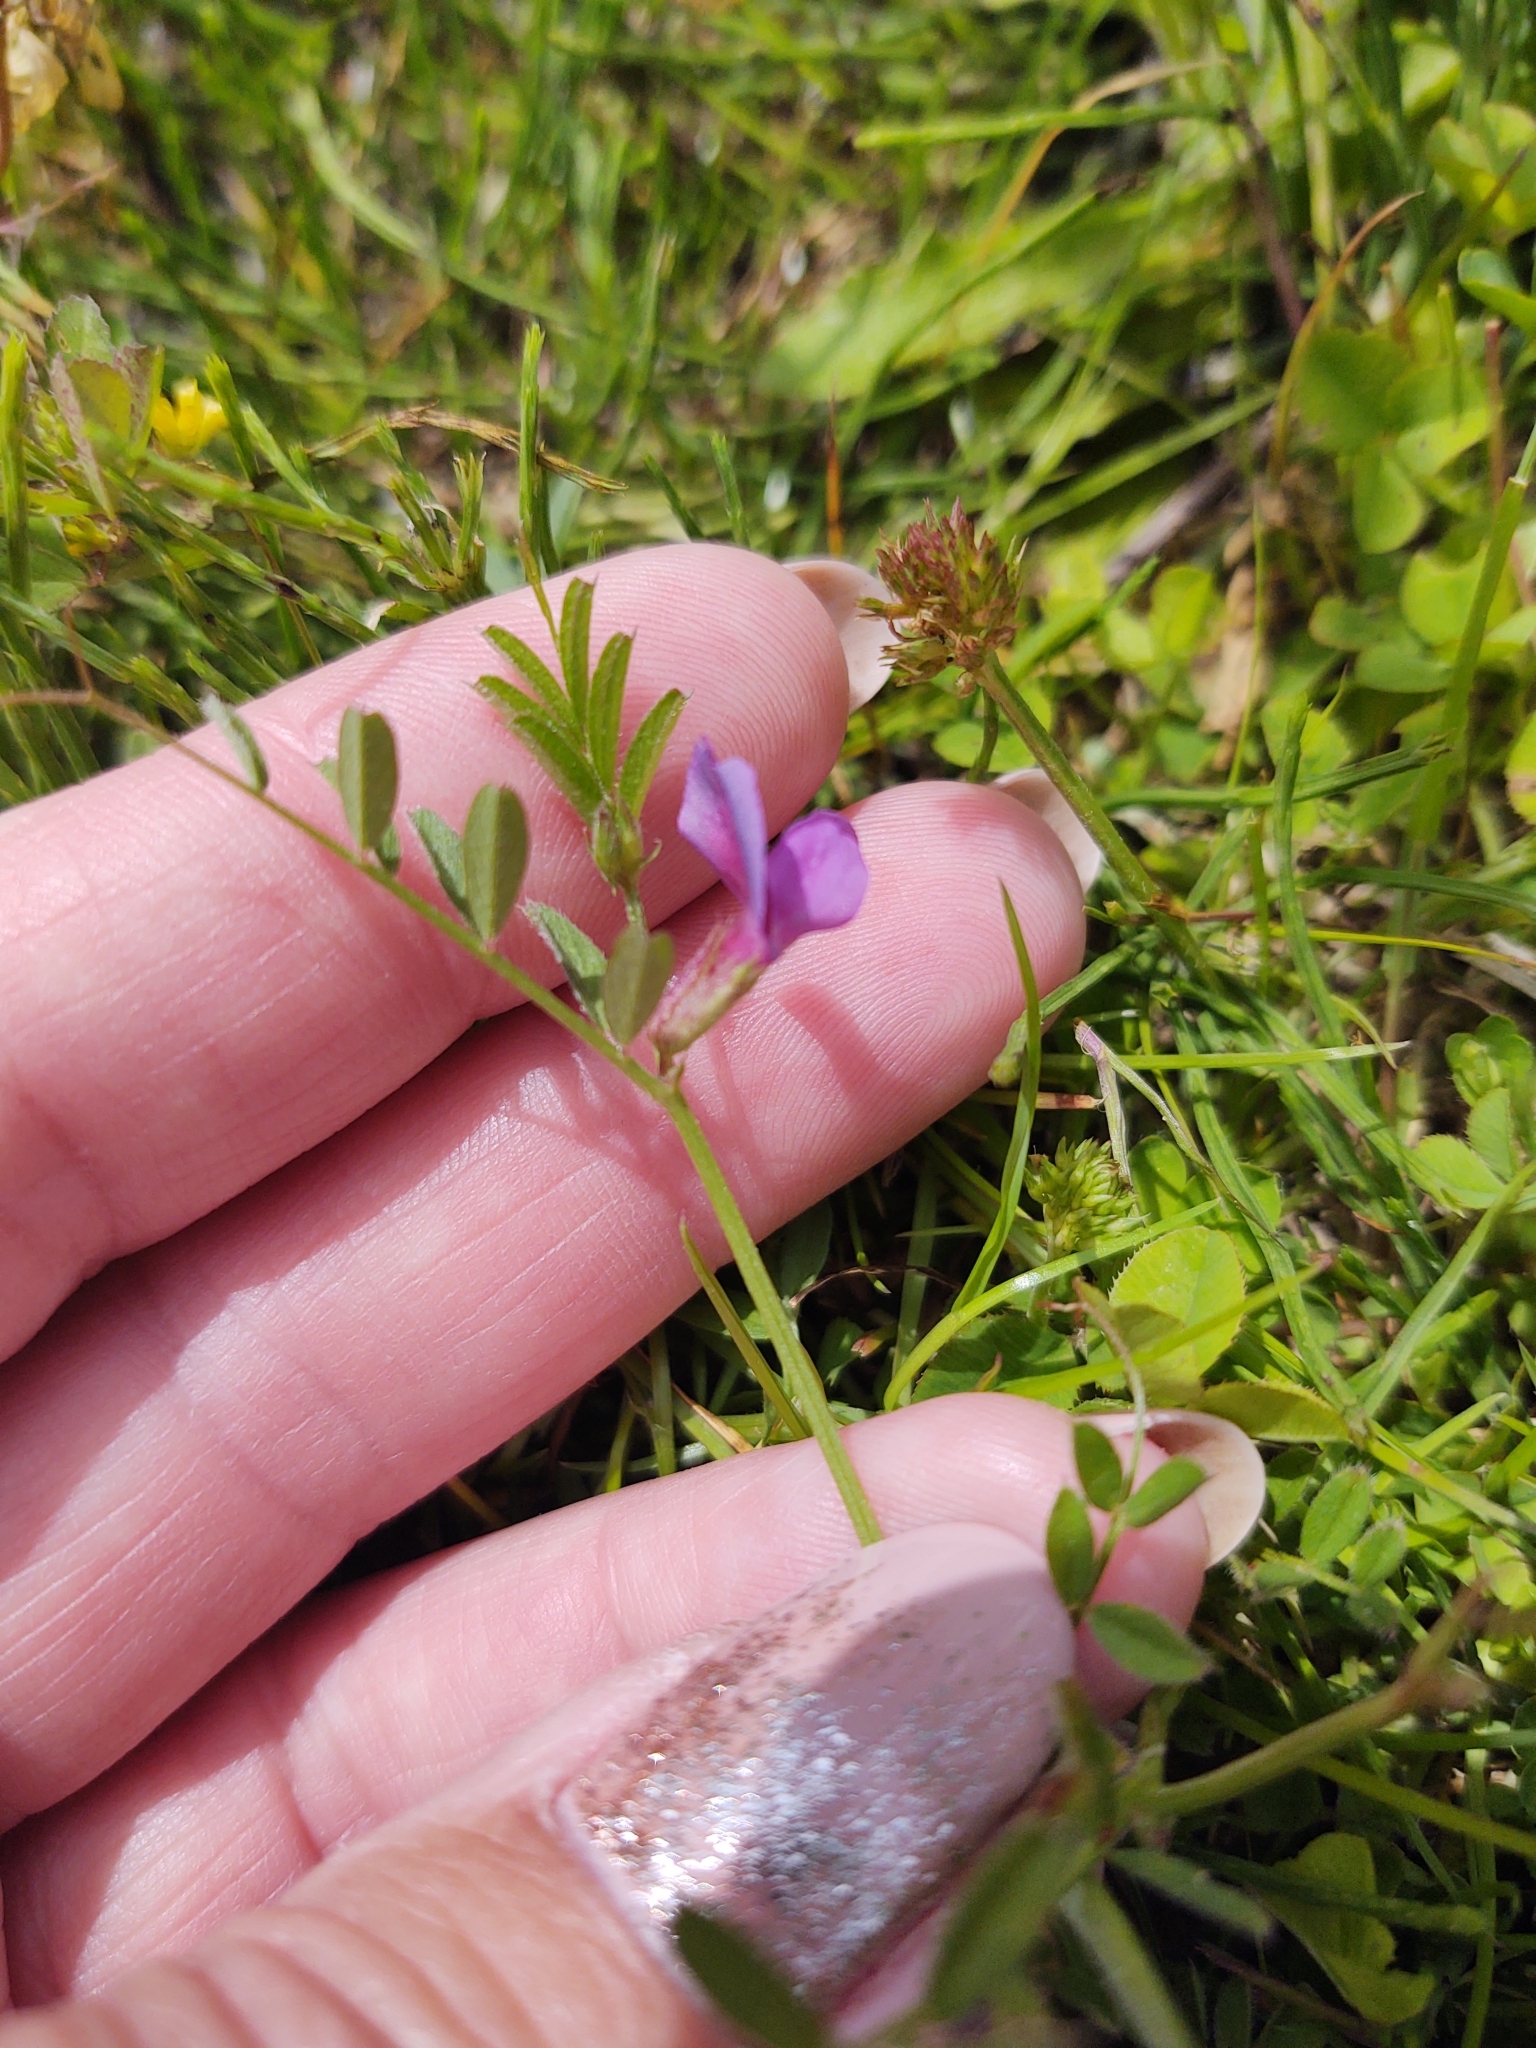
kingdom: Plantae
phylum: Tracheophyta
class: Magnoliopsida
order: Fabales
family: Fabaceae
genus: Vicia
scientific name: Vicia sativa
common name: Garden vetch
